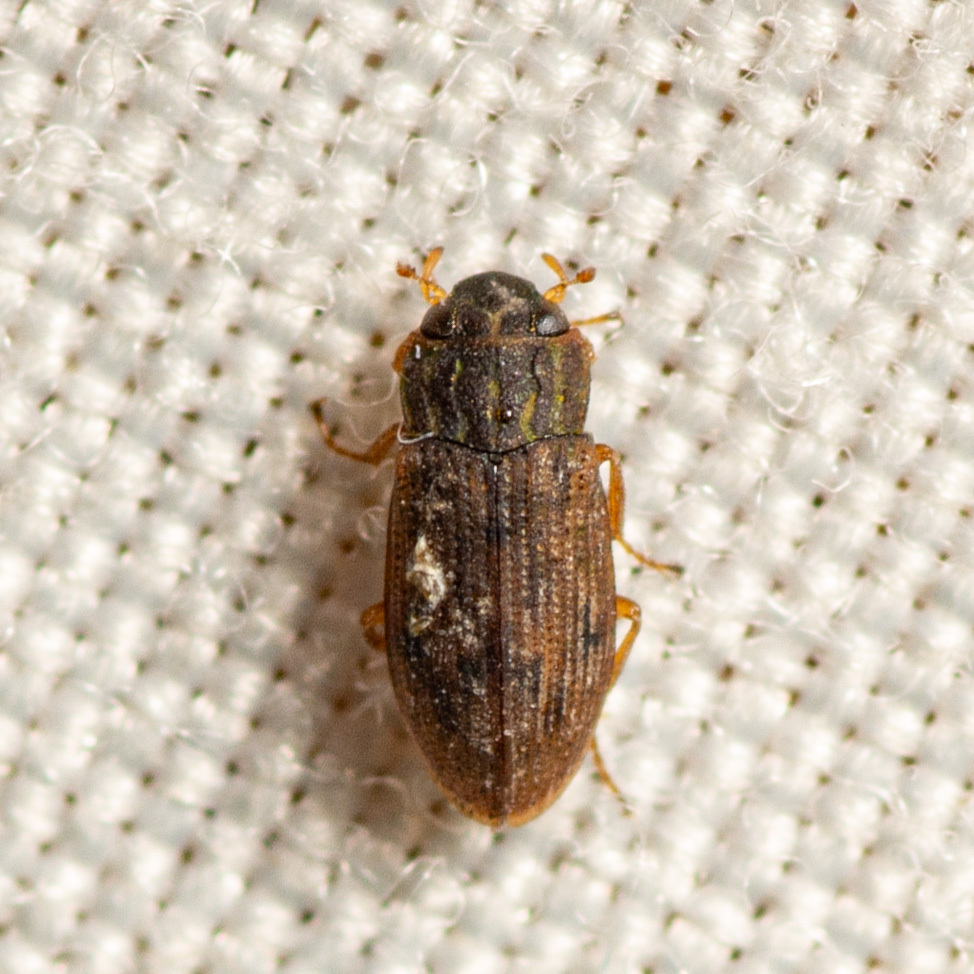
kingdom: Animalia
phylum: Arthropoda
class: Insecta
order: Coleoptera
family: Helophoridae
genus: Helophorus
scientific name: Helophorus
